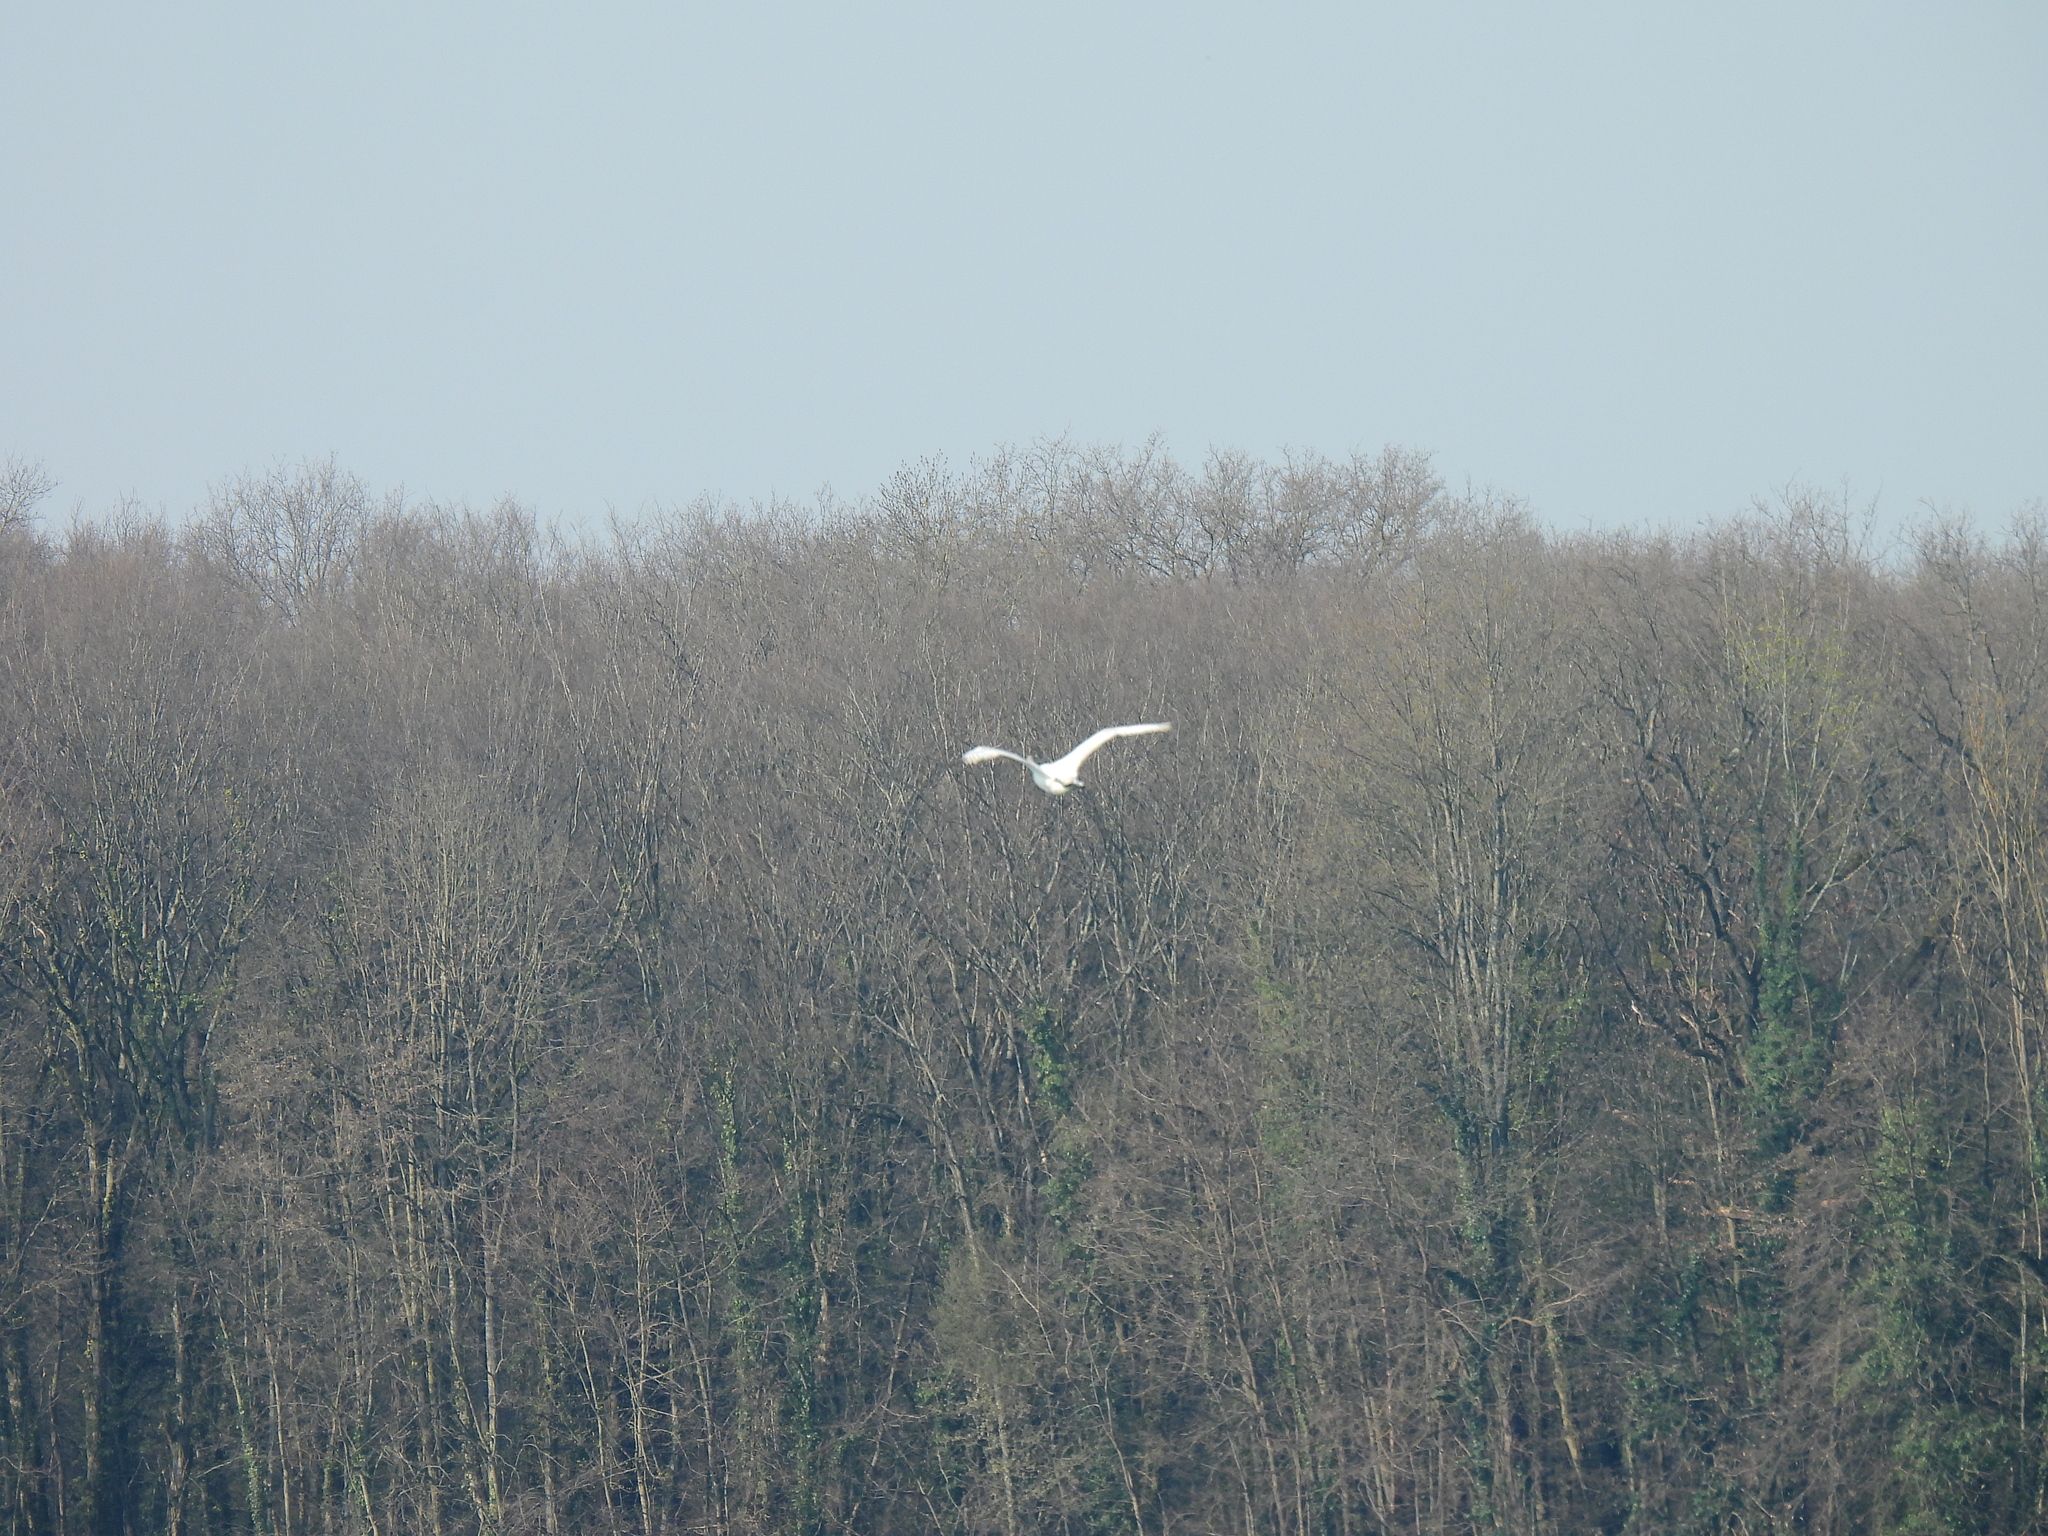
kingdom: Animalia
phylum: Chordata
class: Aves
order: Pelecaniformes
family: Ardeidae
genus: Ardea
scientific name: Ardea alba
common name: Great egret
